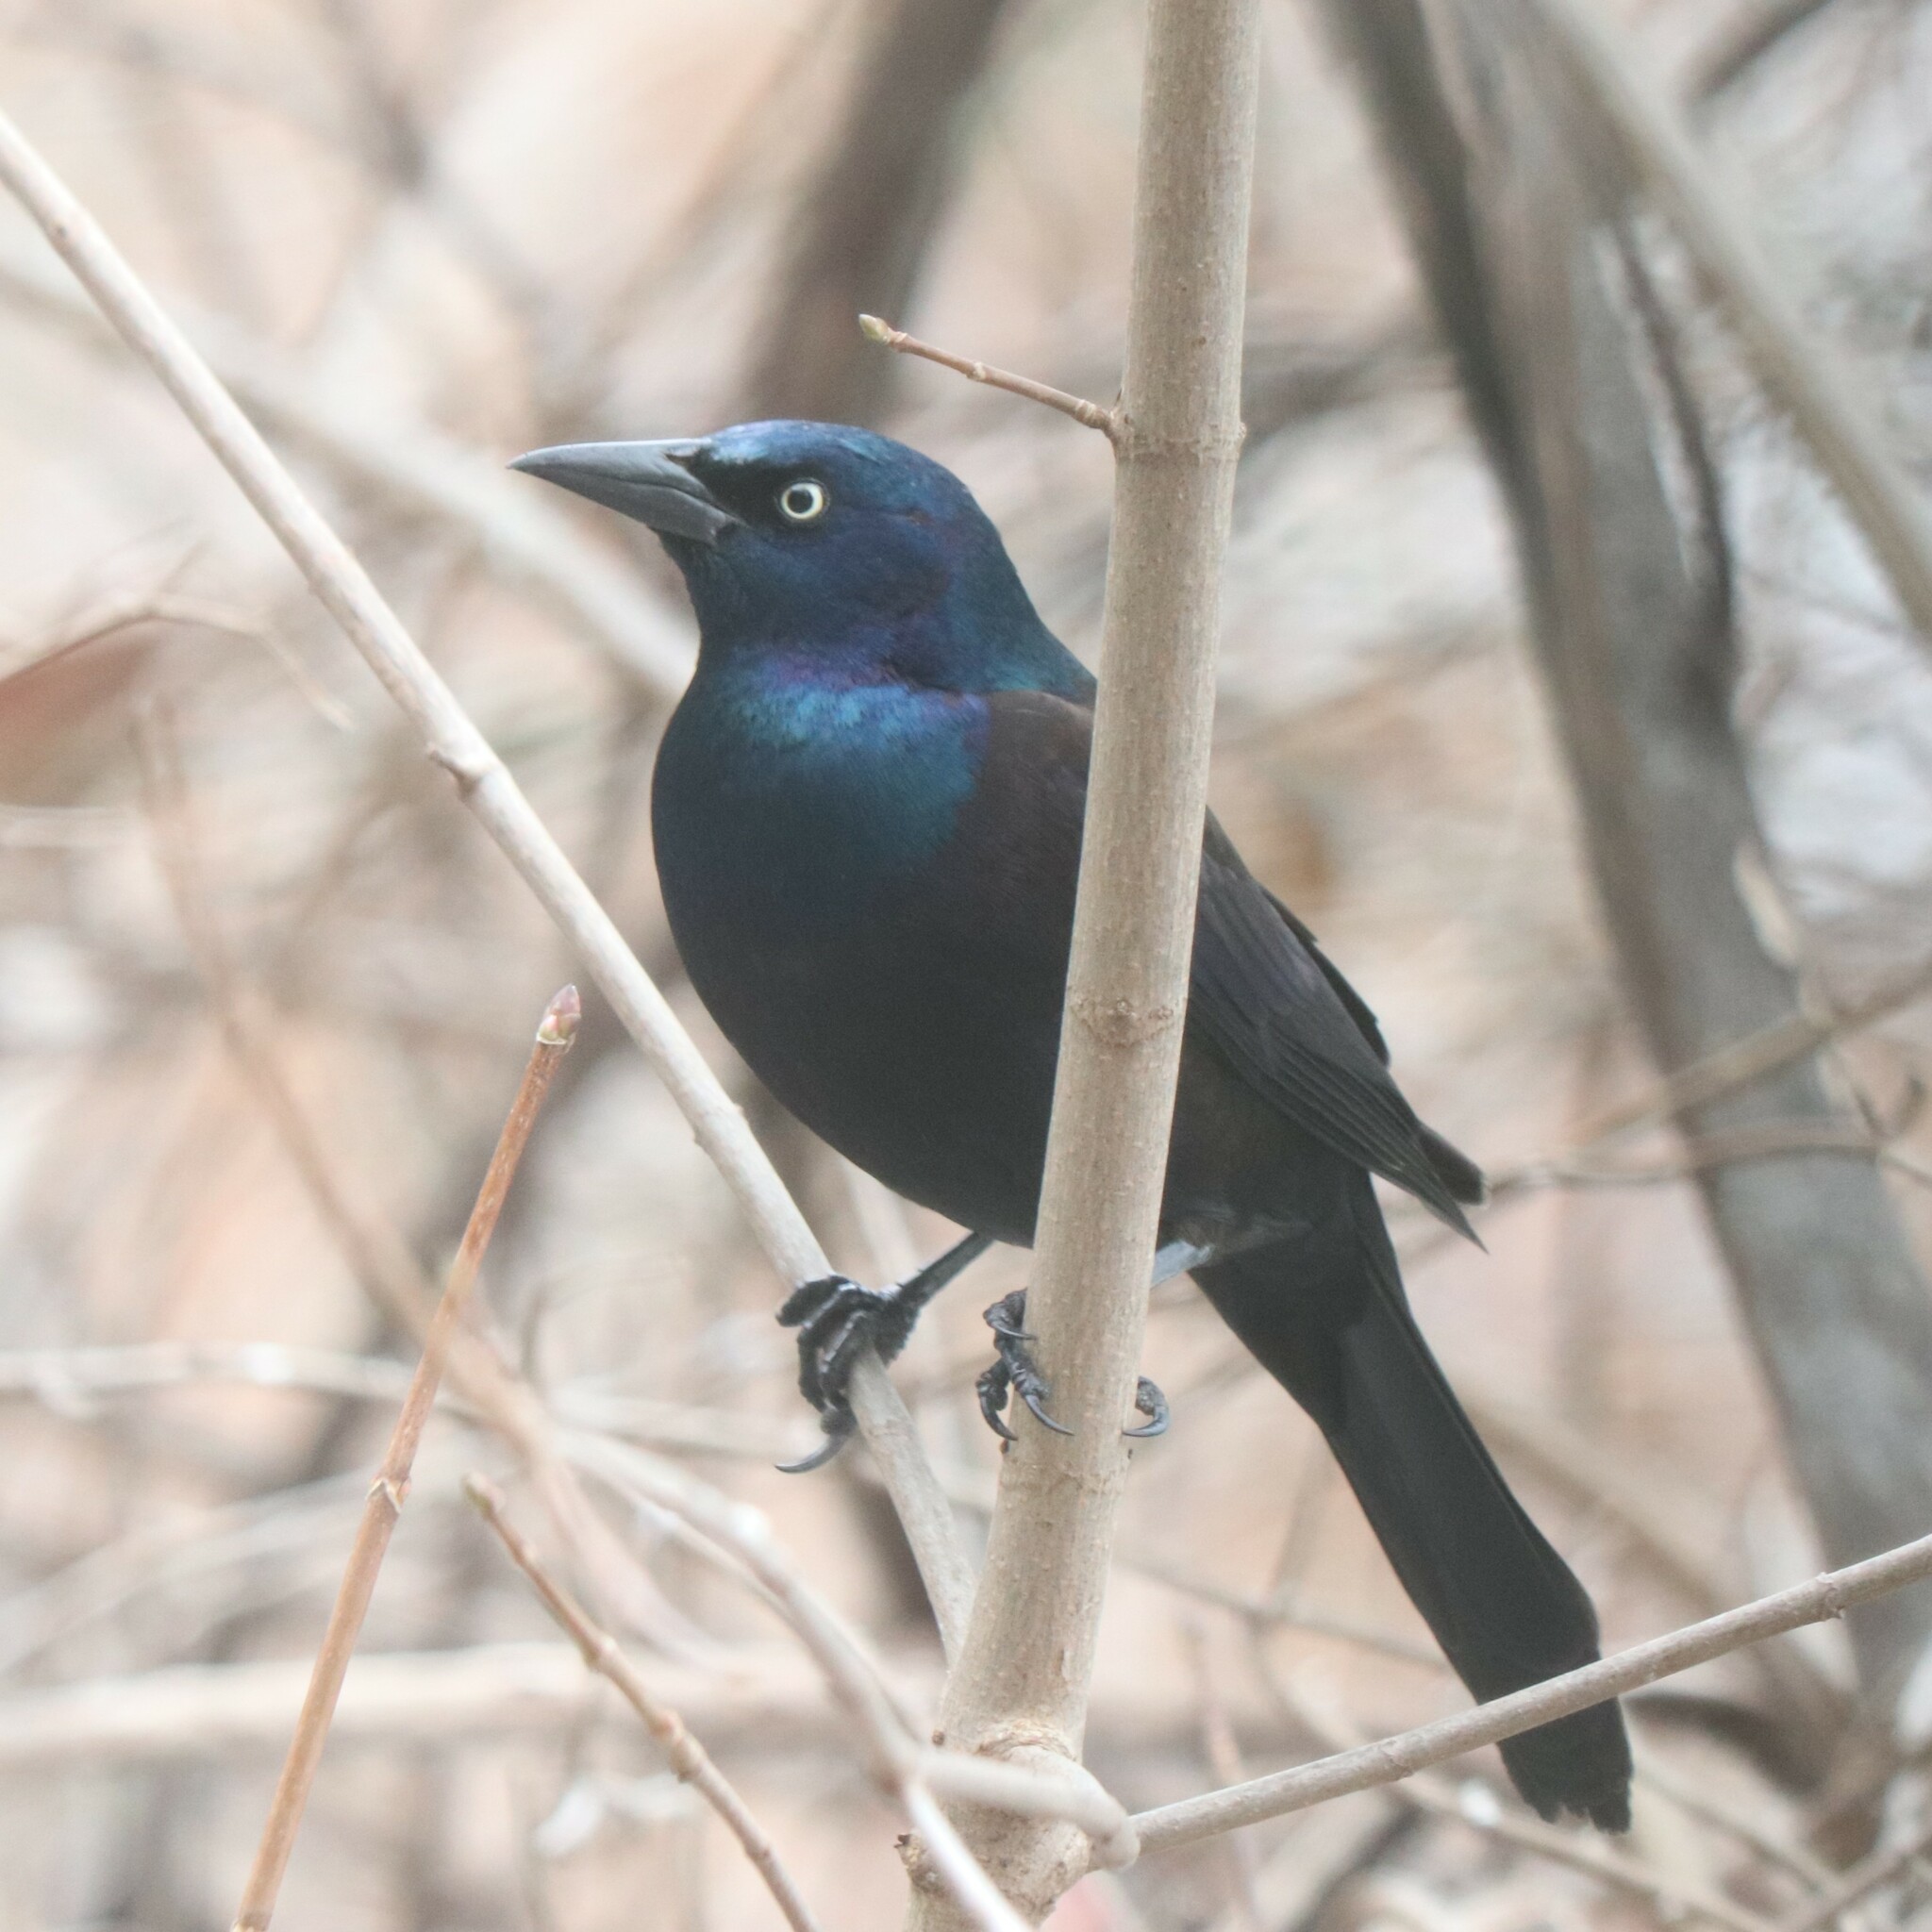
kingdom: Animalia
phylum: Chordata
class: Aves
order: Passeriformes
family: Icteridae
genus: Quiscalus
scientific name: Quiscalus quiscula
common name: Common grackle
